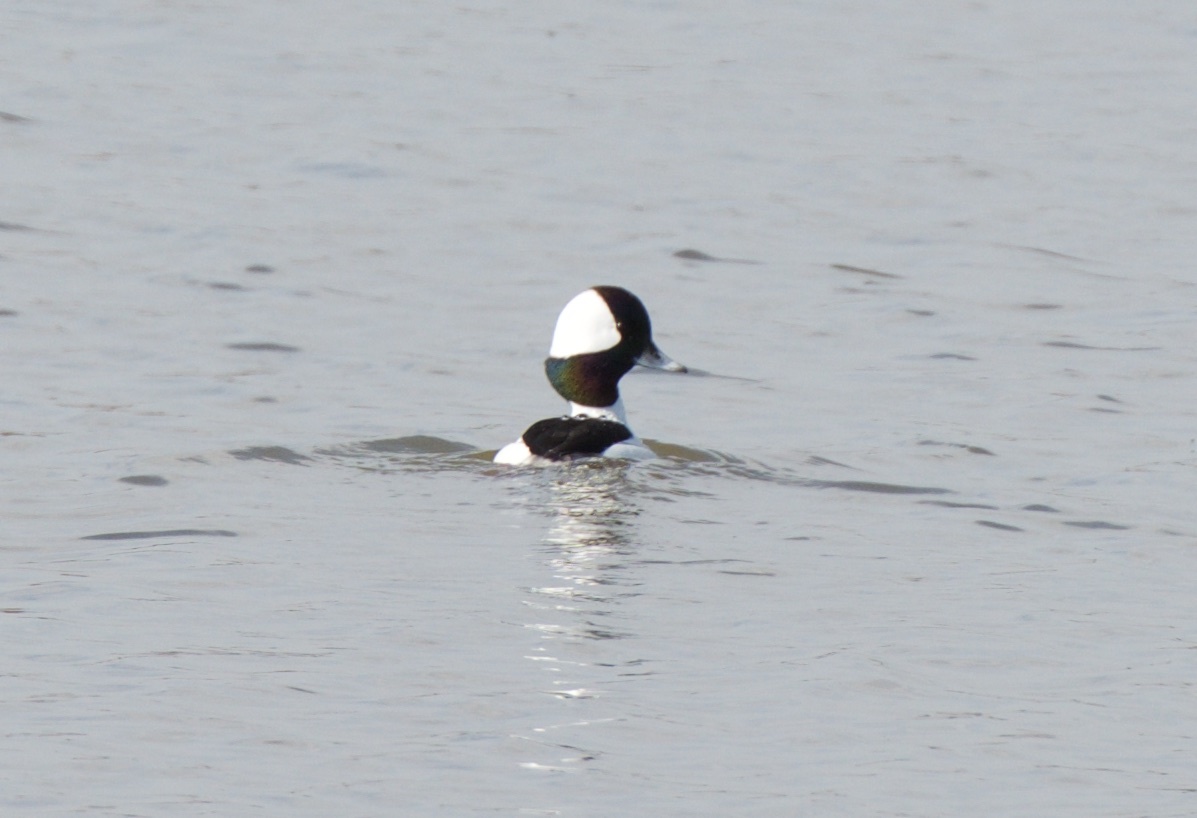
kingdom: Animalia
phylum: Chordata
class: Aves
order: Anseriformes
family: Anatidae
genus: Bucephala
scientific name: Bucephala albeola
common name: Bufflehead
